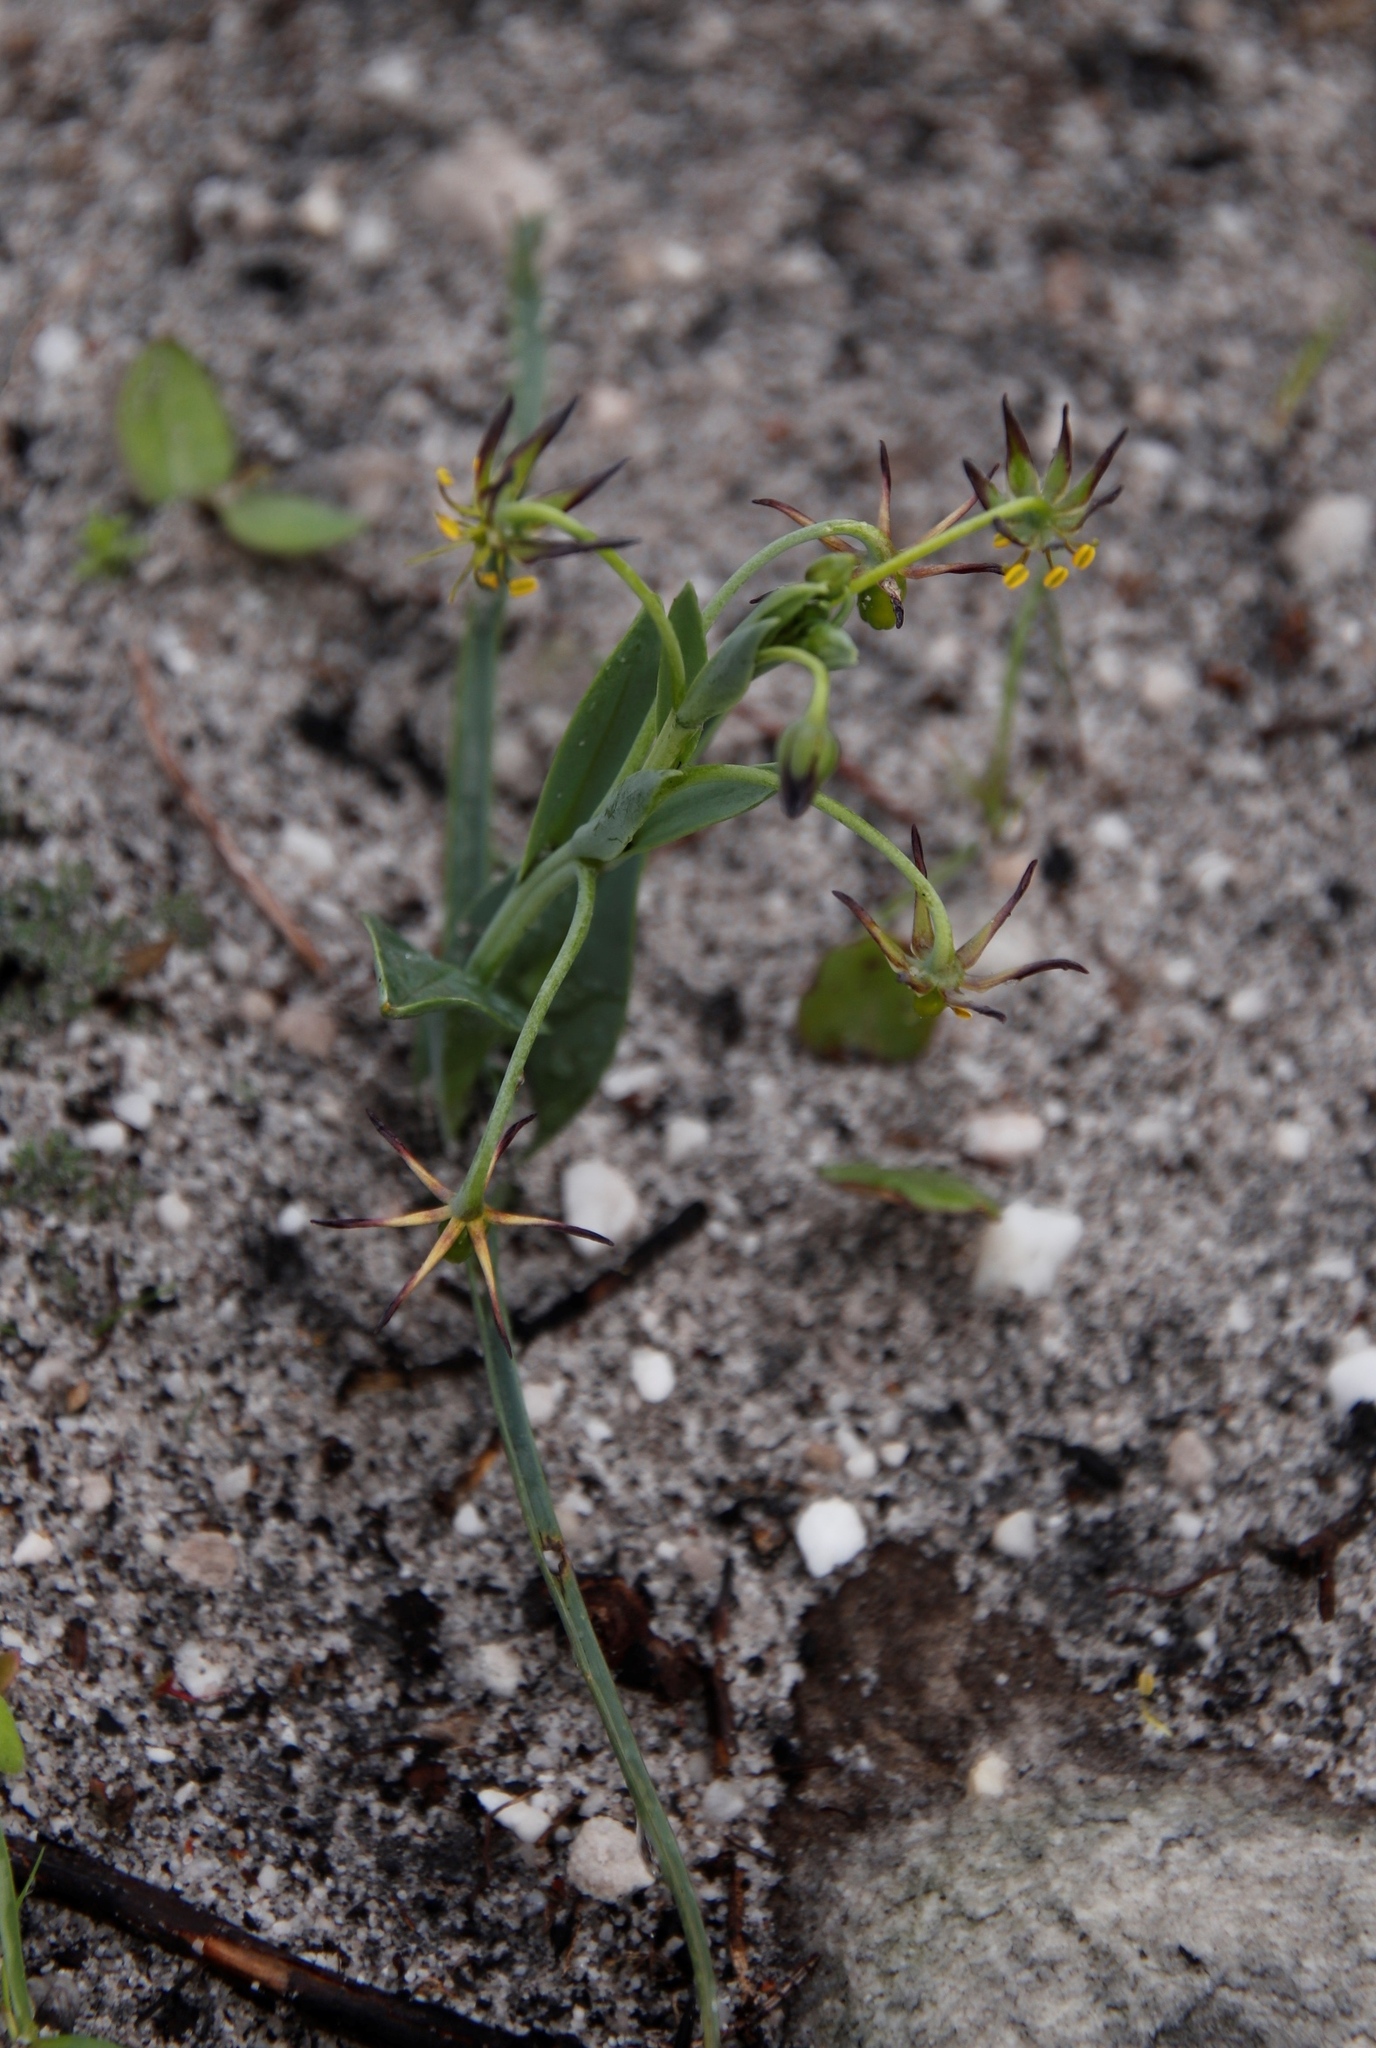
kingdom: Plantae
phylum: Tracheophyta
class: Liliopsida
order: Liliales
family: Colchicaceae
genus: Ornithoglossum
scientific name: Ornithoglossum viride
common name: Cape poison-onion
